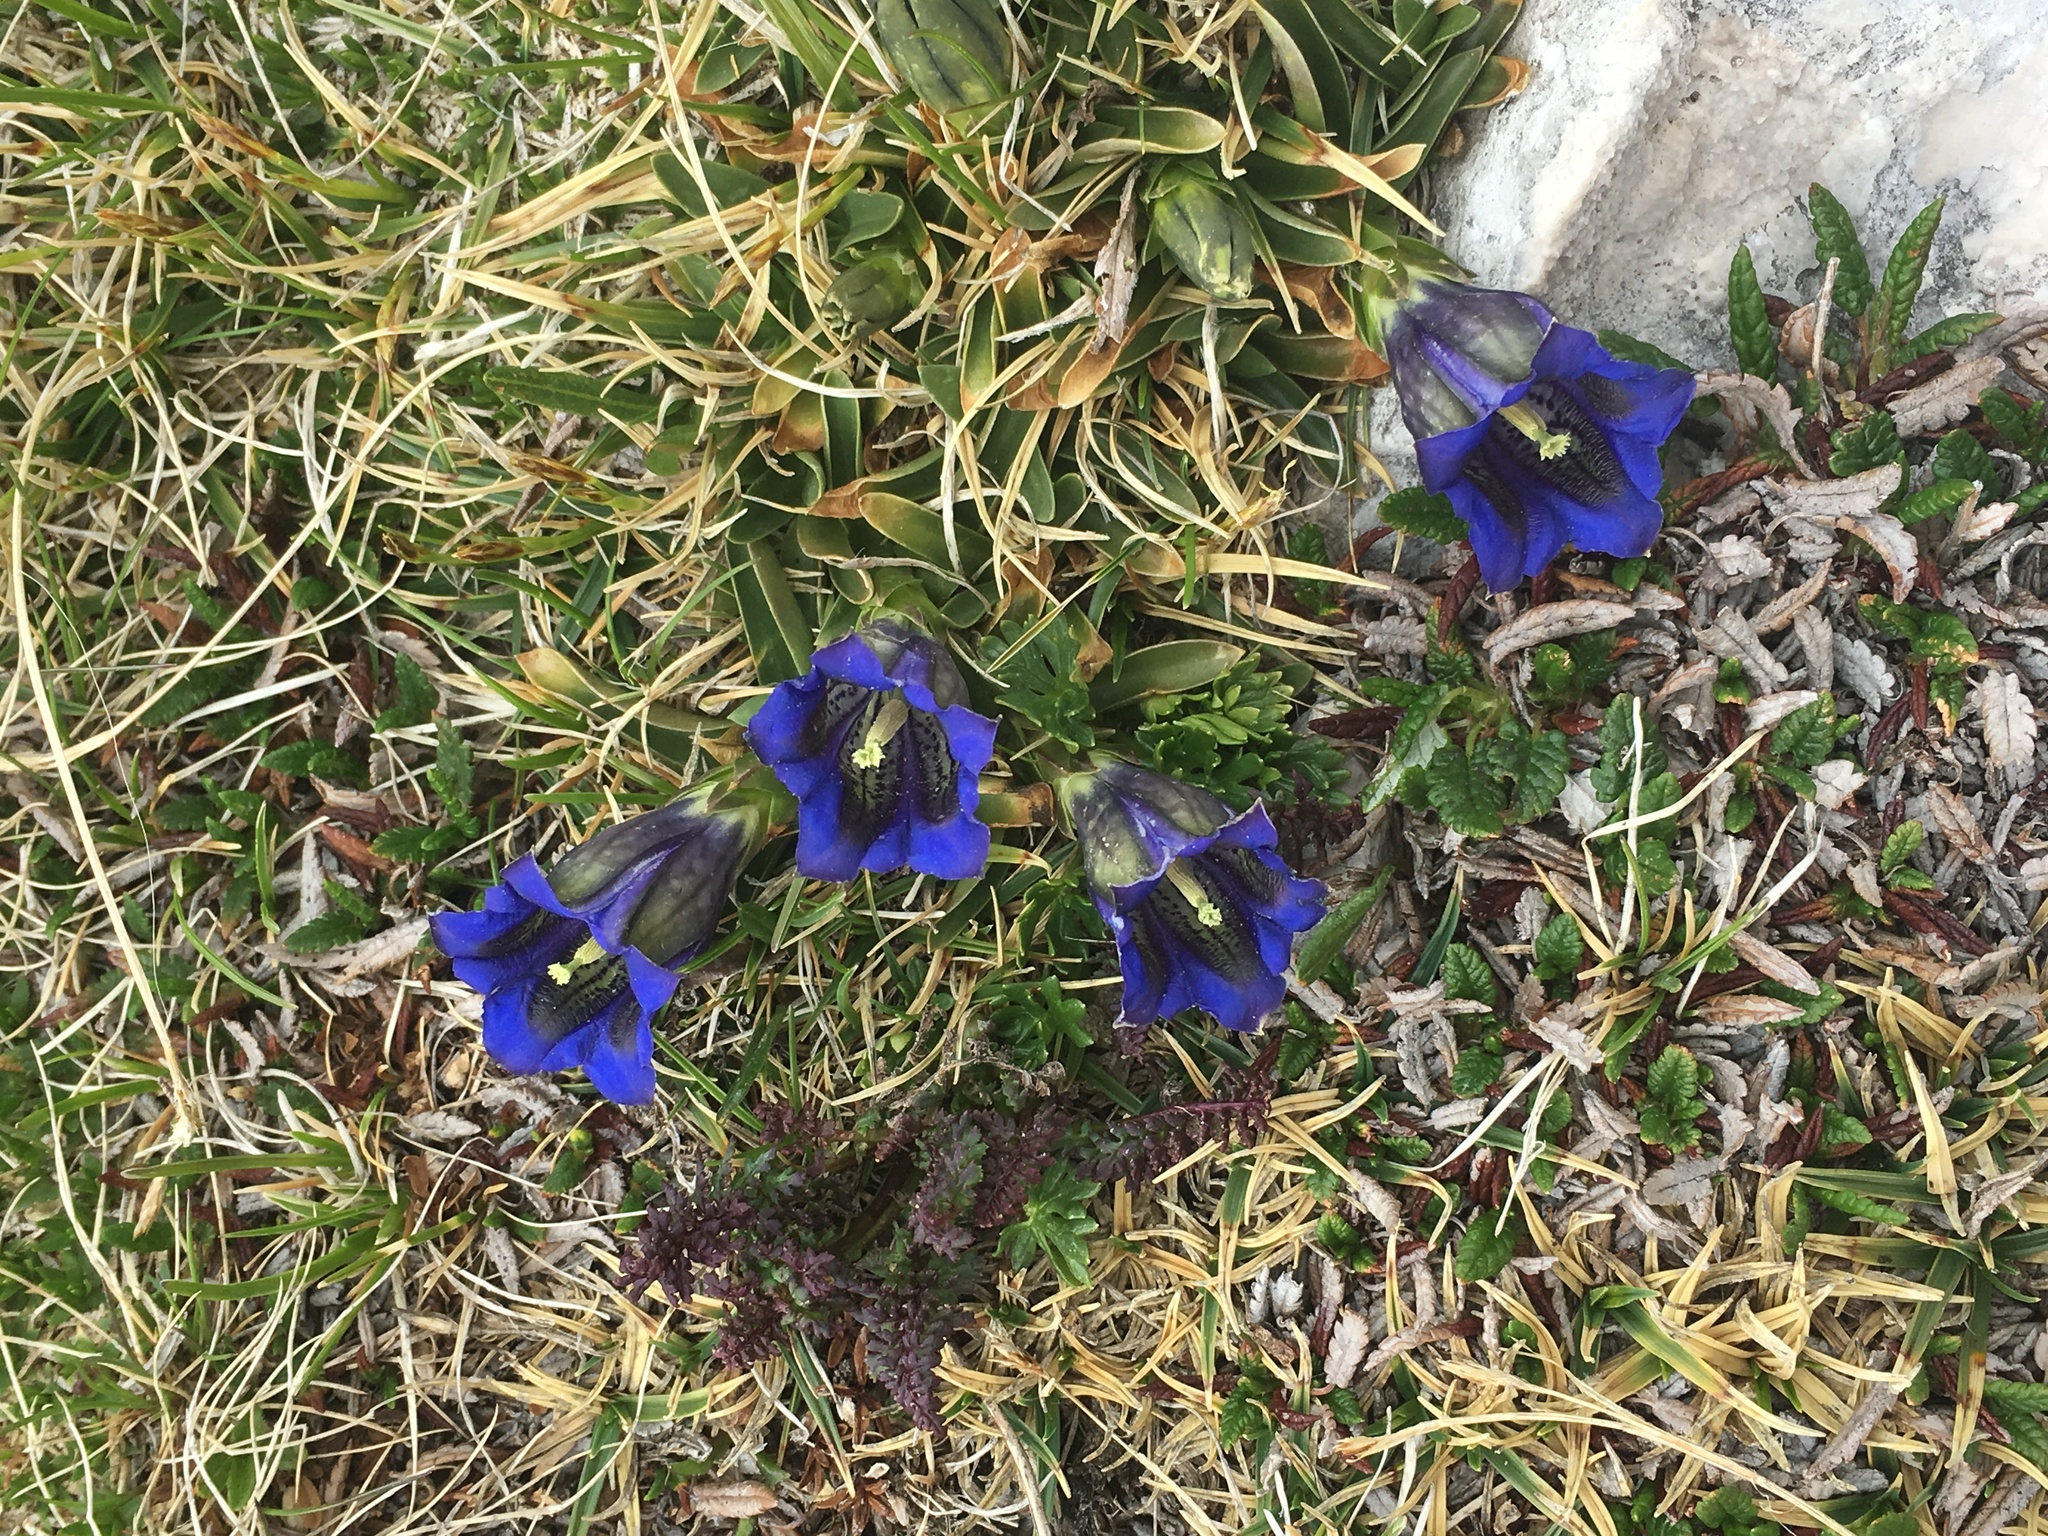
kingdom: Plantae
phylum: Tracheophyta
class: Magnoliopsida
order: Gentianales
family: Gentianaceae
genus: Gentiana
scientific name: Gentiana clusii
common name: Trumpet gentian
